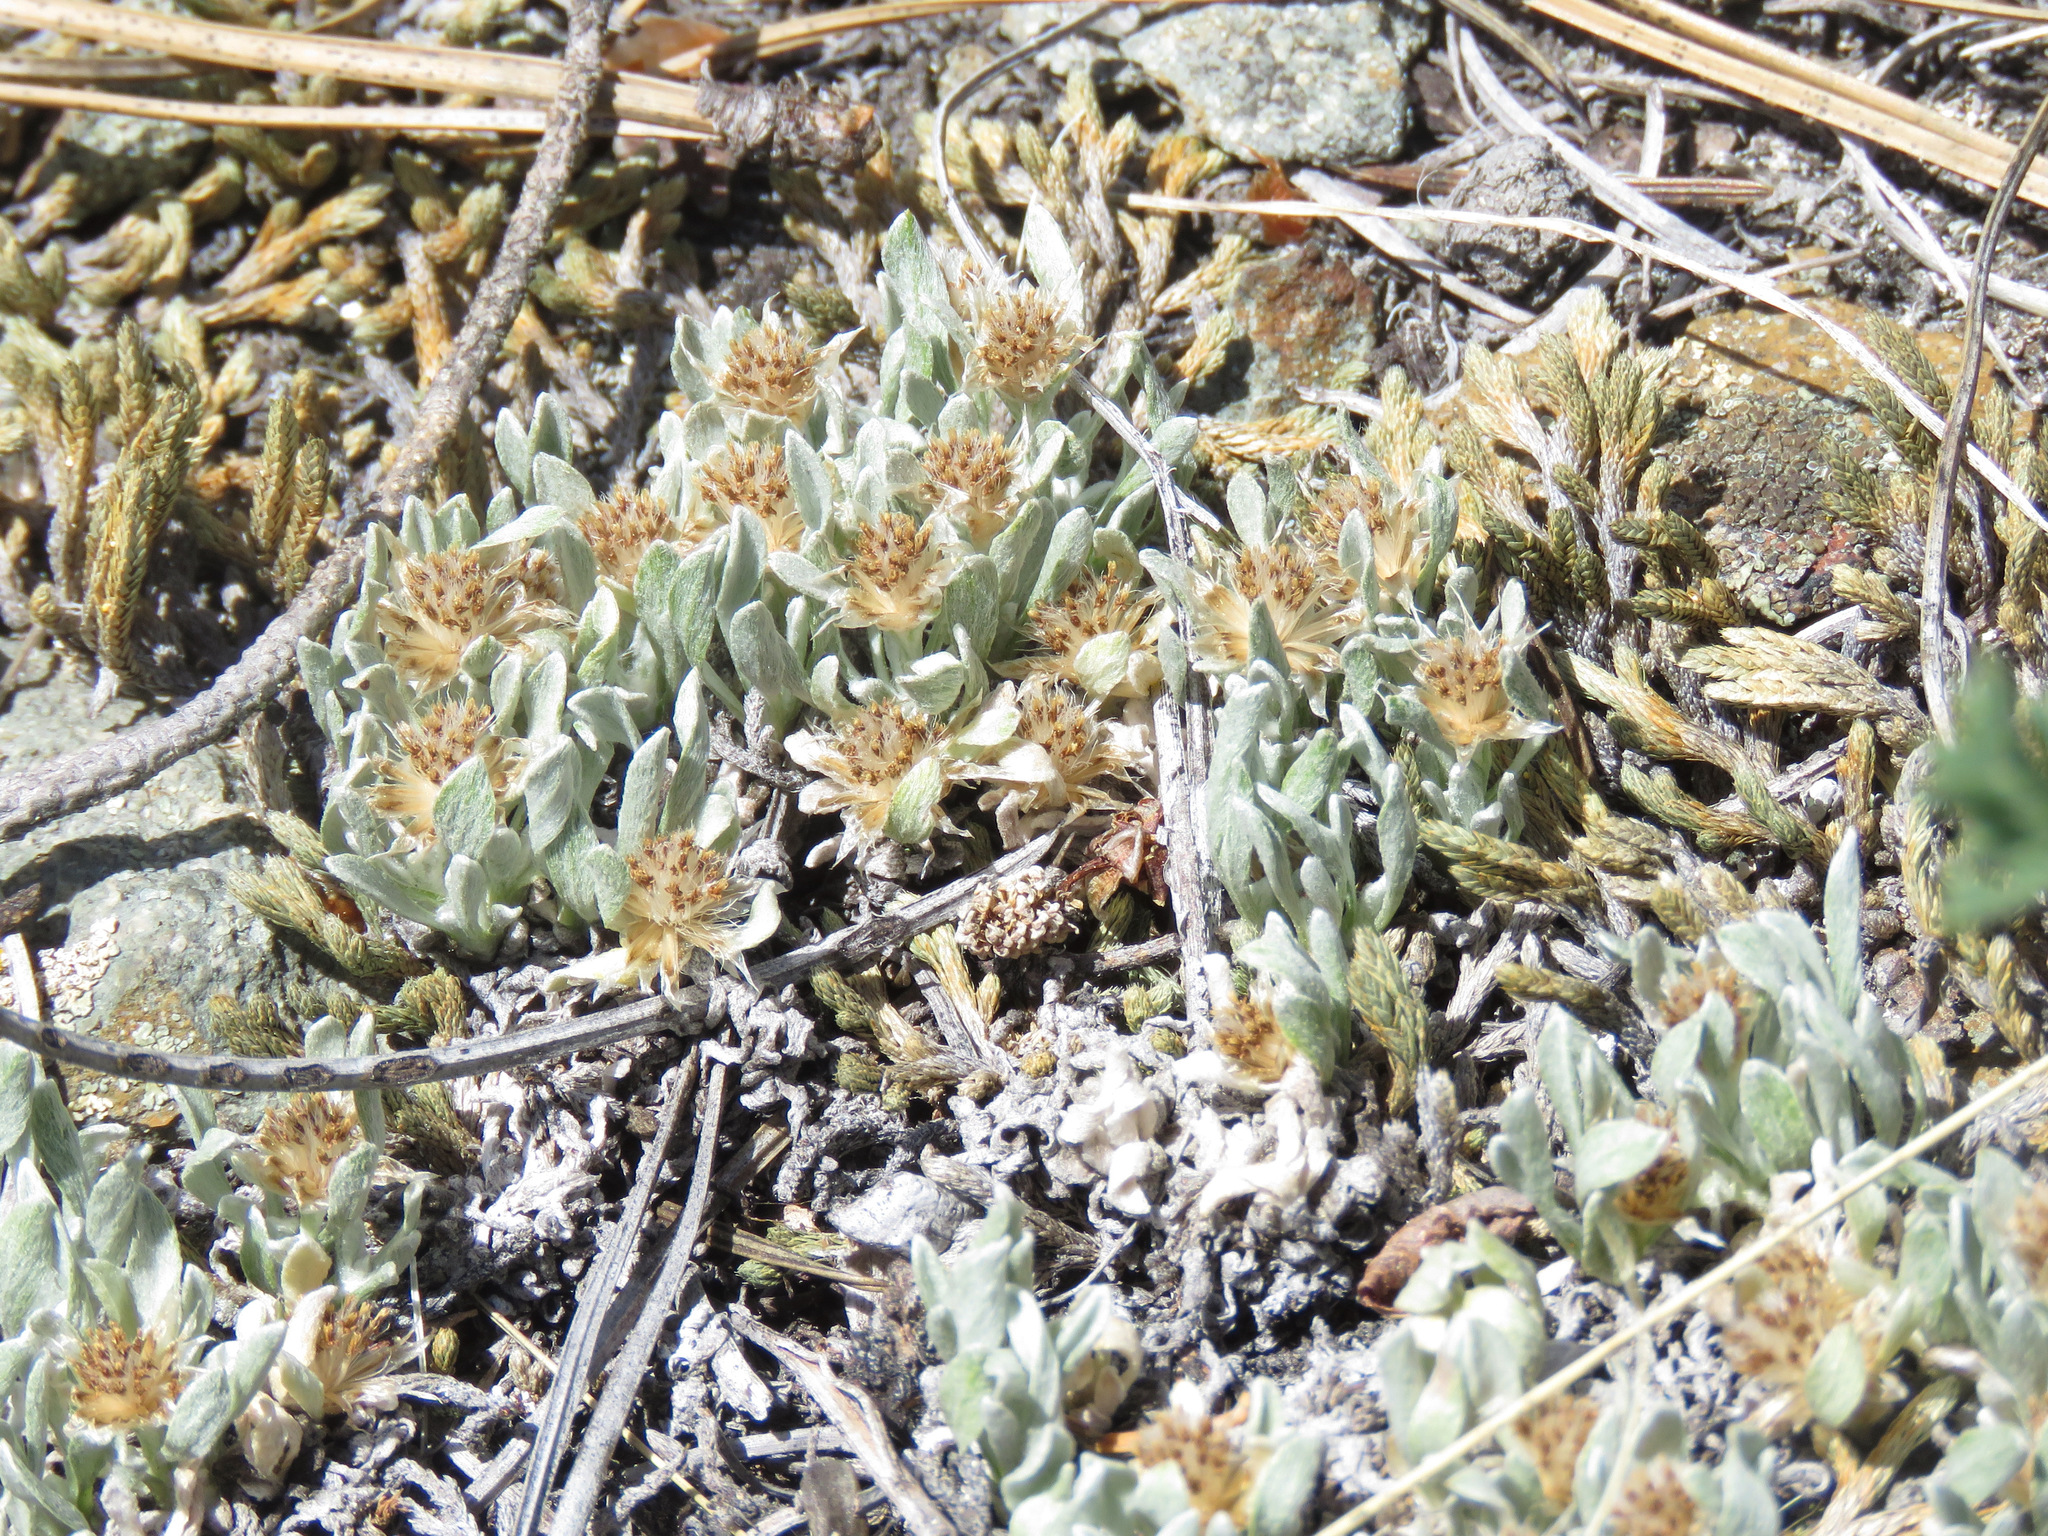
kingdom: Plantae
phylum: Tracheophyta
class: Magnoliopsida
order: Asterales
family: Asteraceae
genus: Antennaria
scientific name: Antennaria dimorpha
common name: Cushion pussytoes
